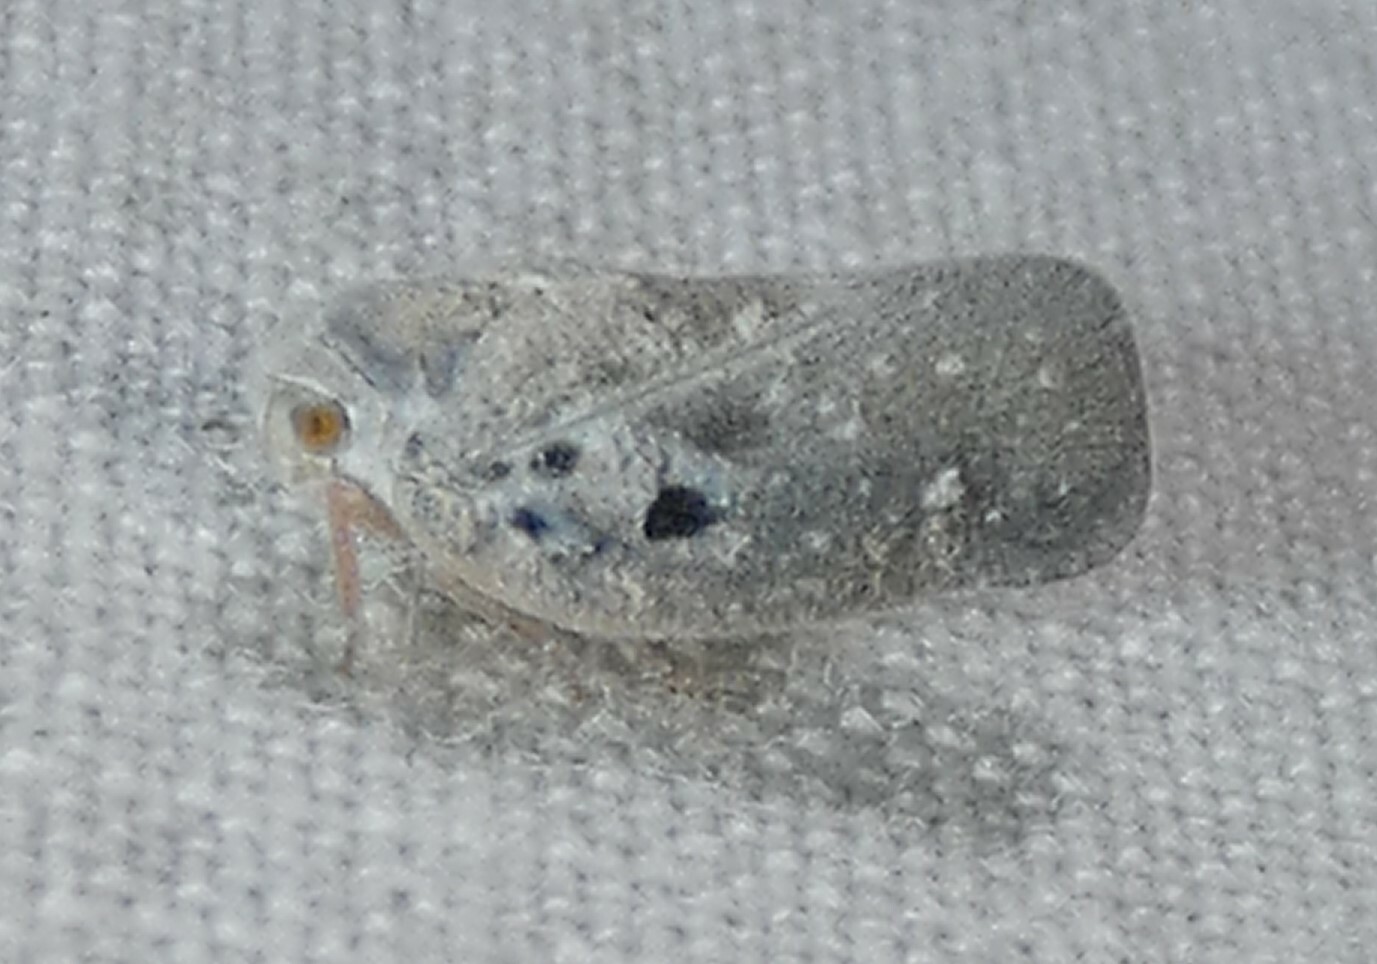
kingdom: Animalia
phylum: Arthropoda
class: Insecta
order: Hemiptera
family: Flatidae
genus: Metcalfa
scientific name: Metcalfa pruinosa
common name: Citrus flatid planthopper
